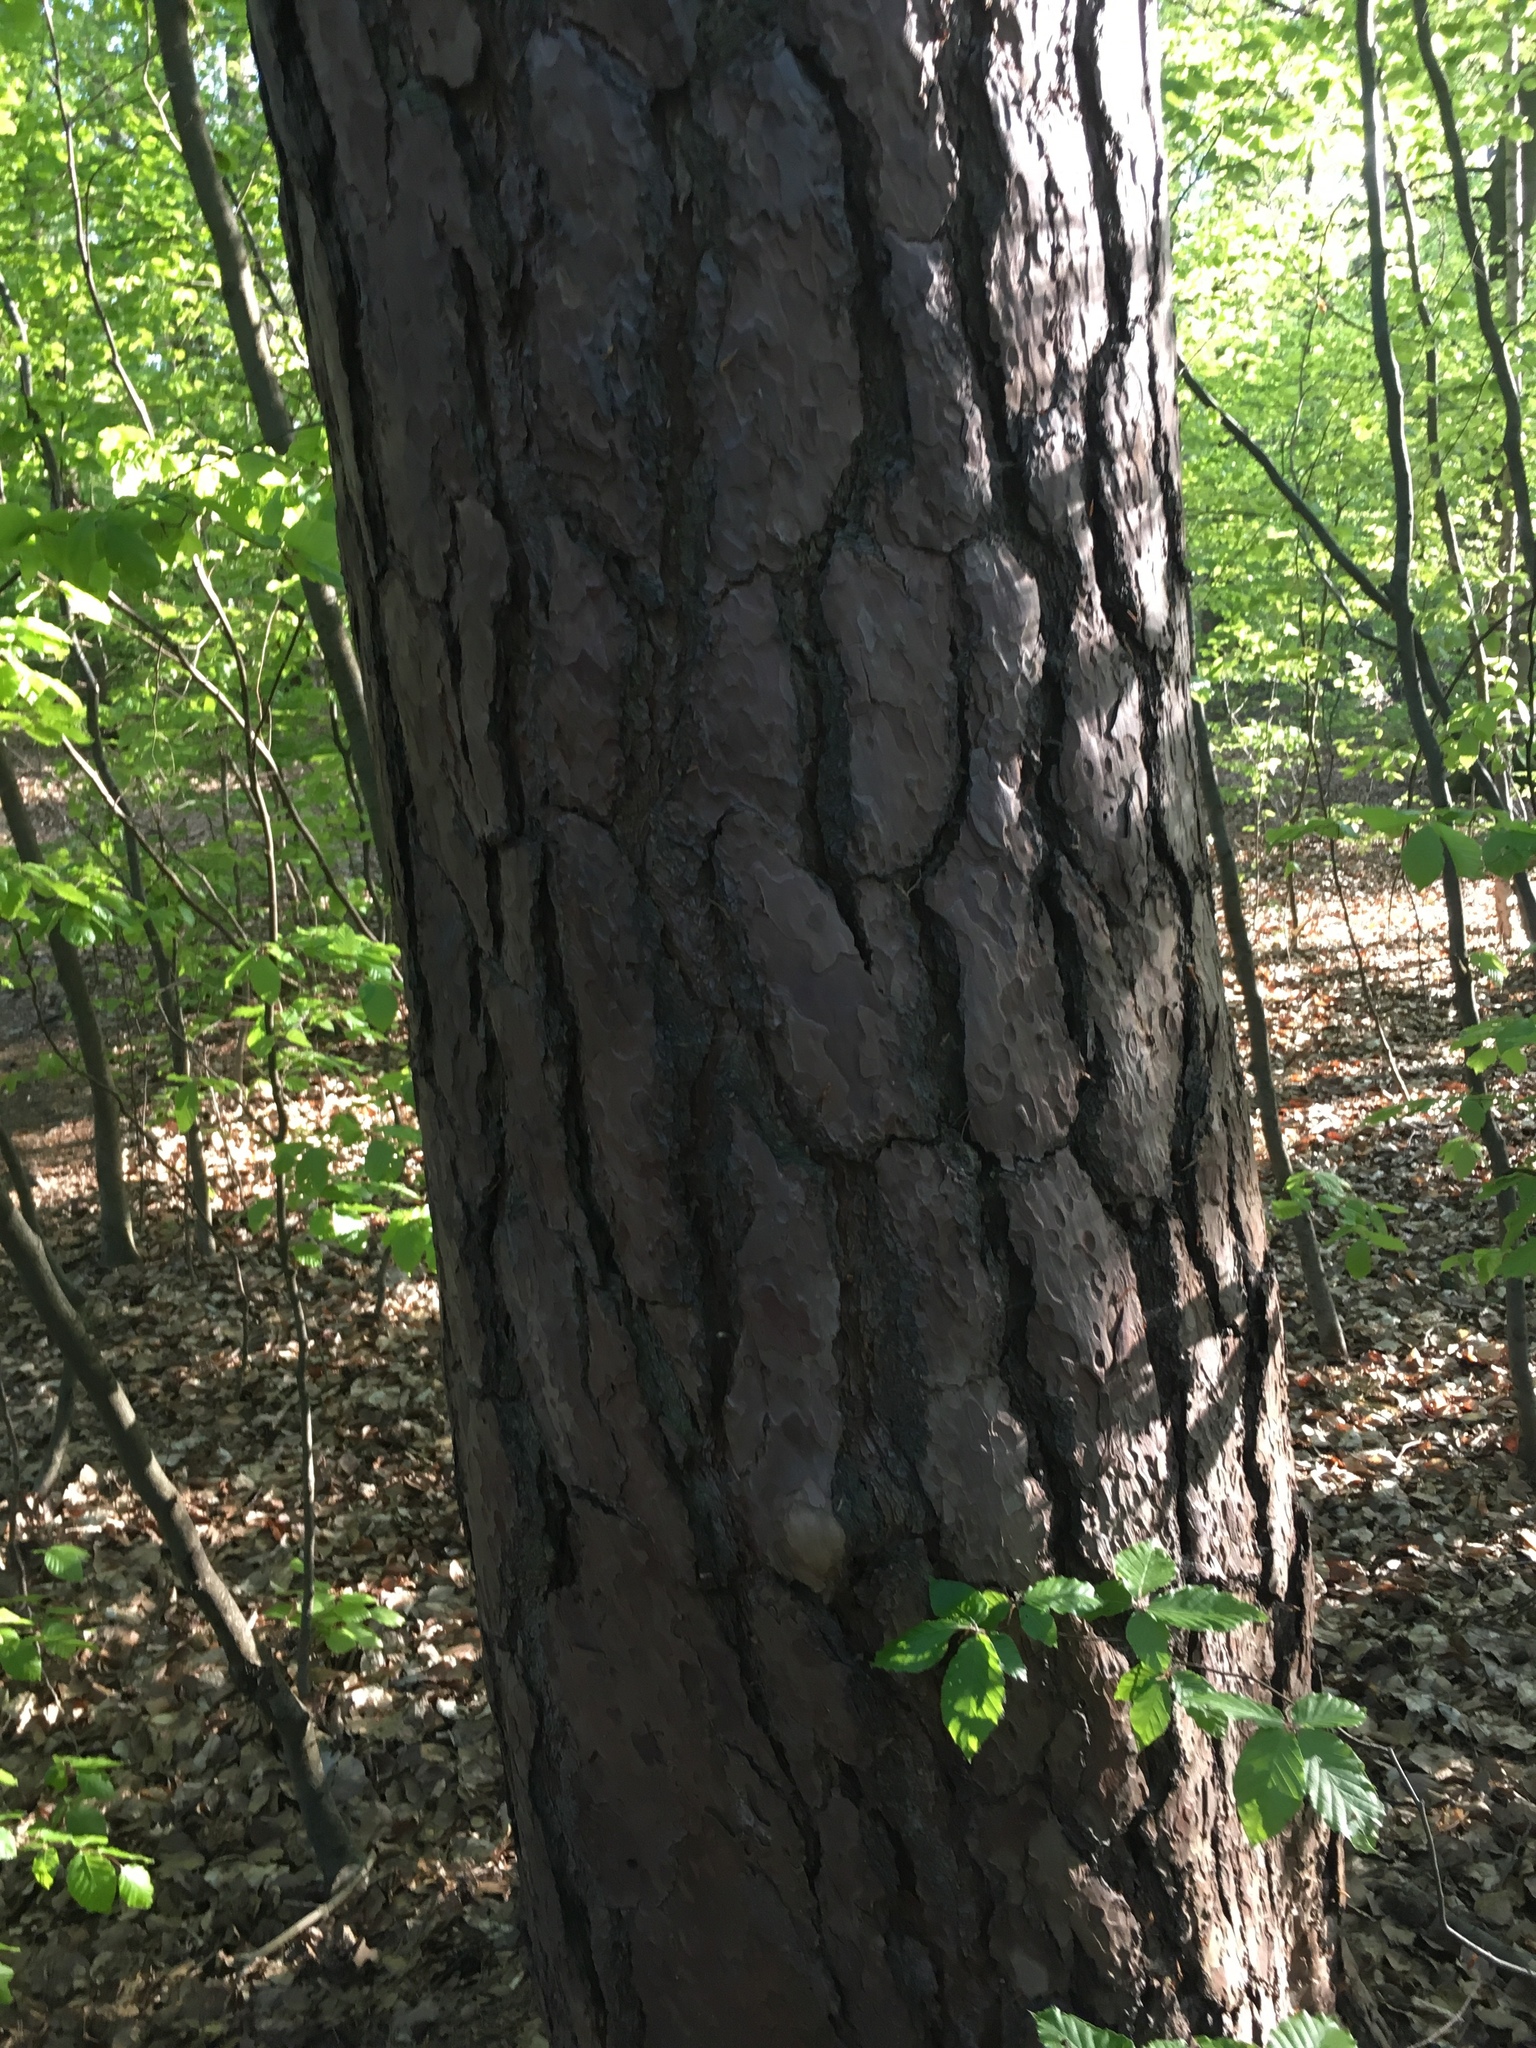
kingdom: Plantae
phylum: Tracheophyta
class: Pinopsida
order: Pinales
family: Pinaceae
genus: Pinus
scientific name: Pinus sylvestris
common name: Scots pine
